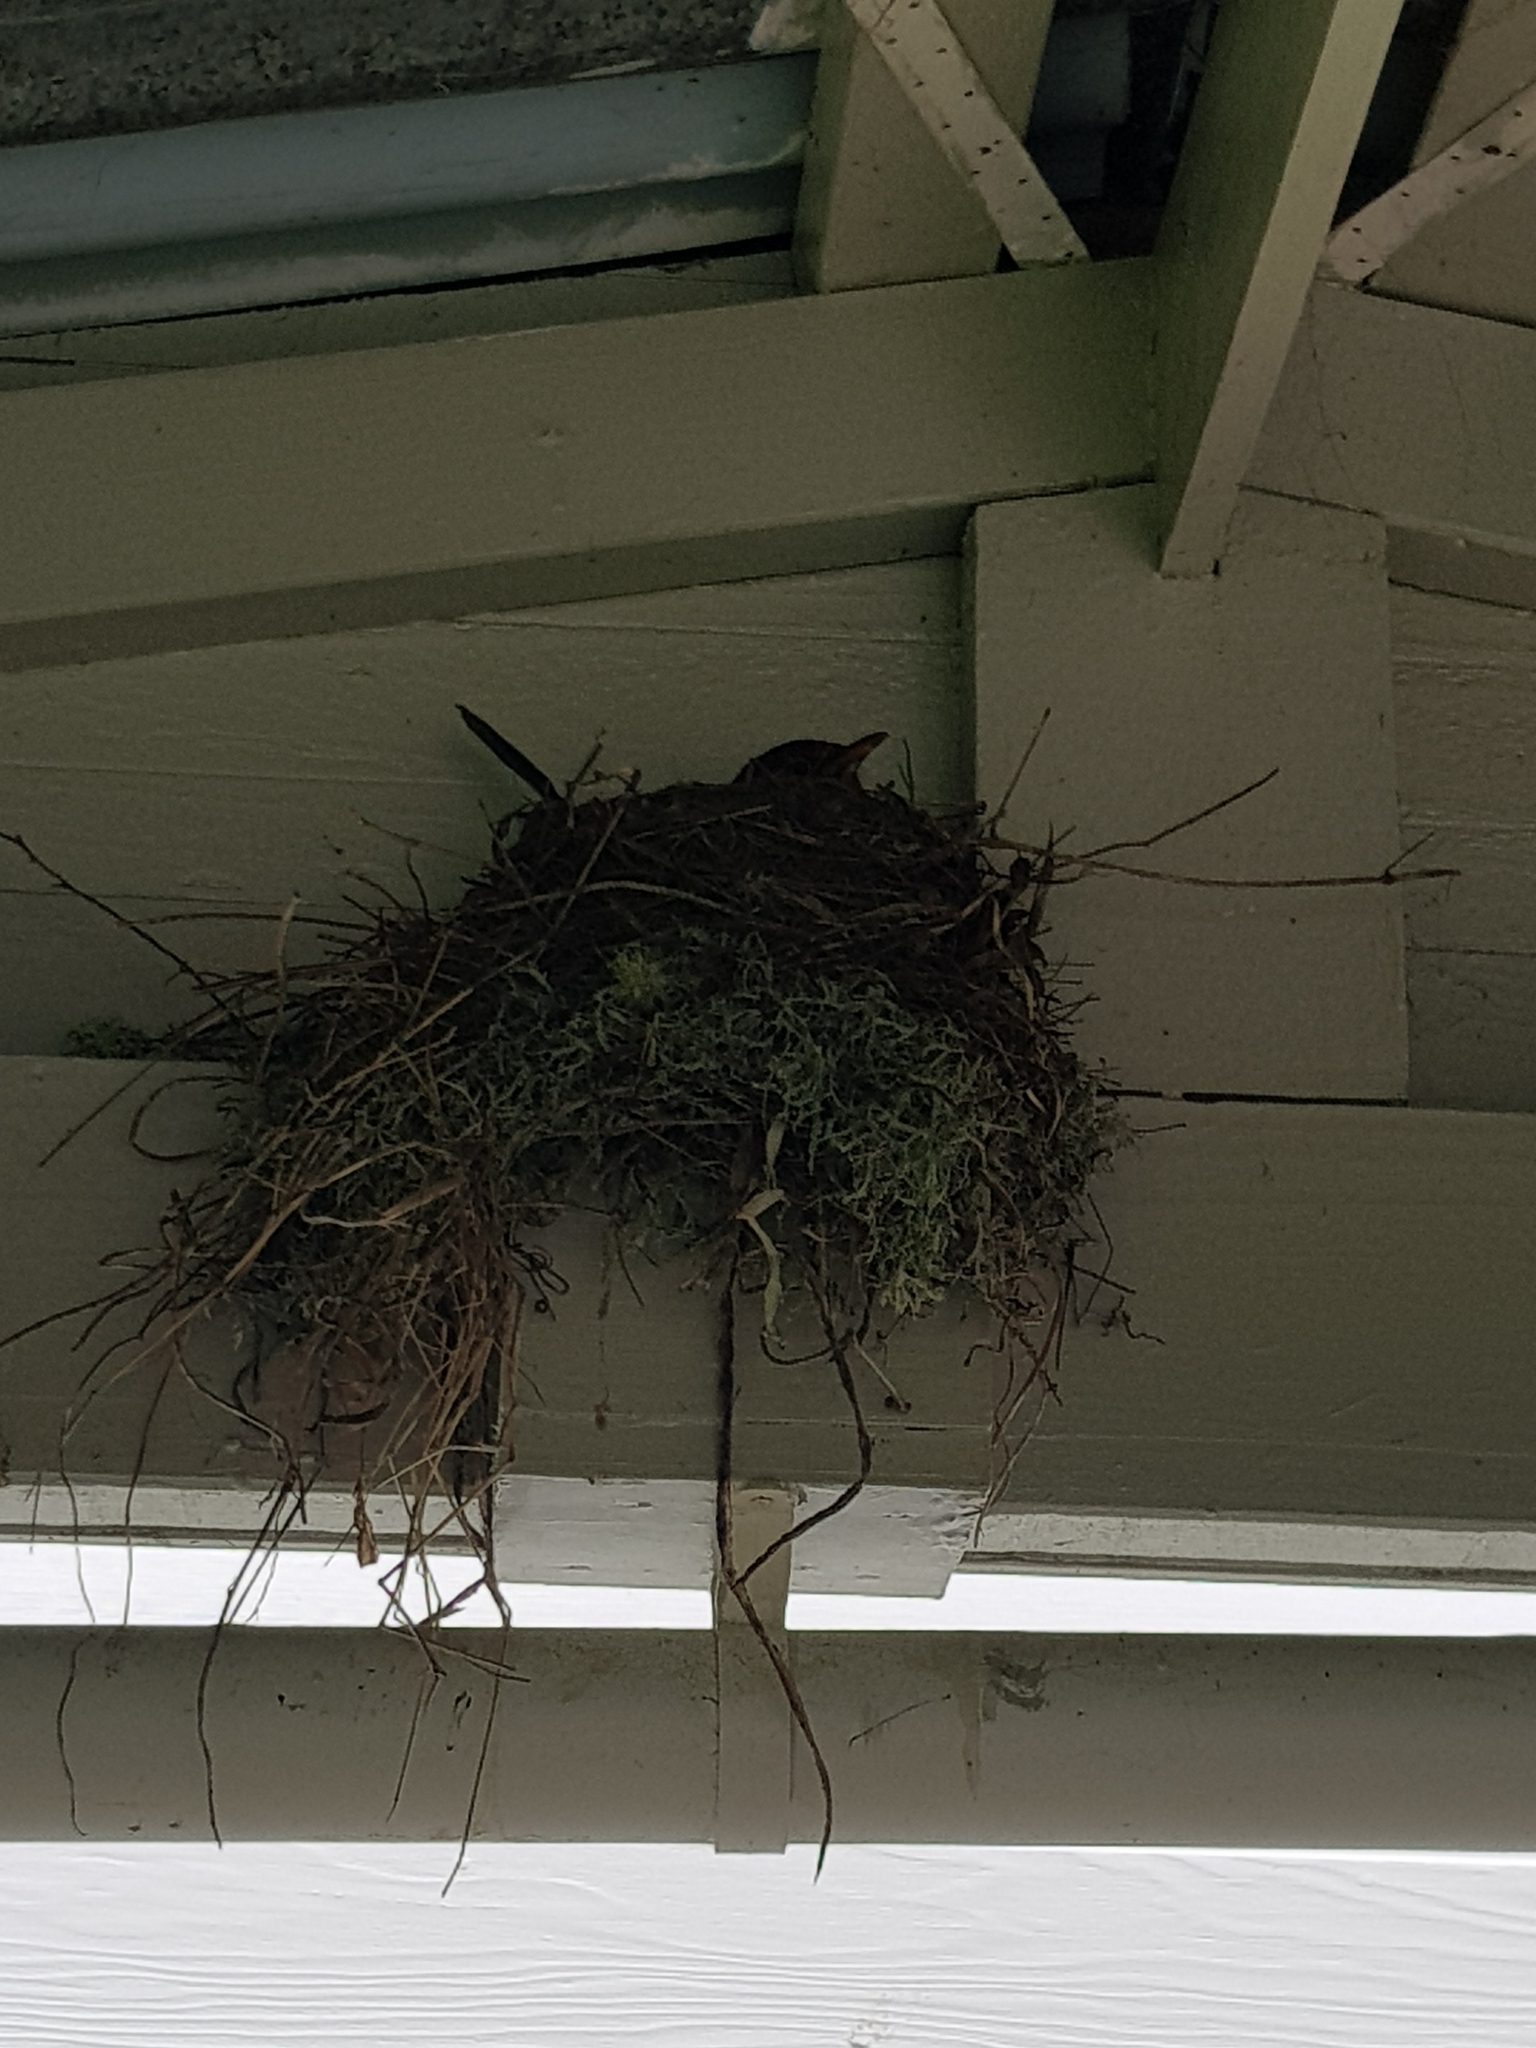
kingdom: Animalia
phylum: Chordata
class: Aves
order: Passeriformes
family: Turdidae
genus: Turdus
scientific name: Turdus merula
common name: Common blackbird
